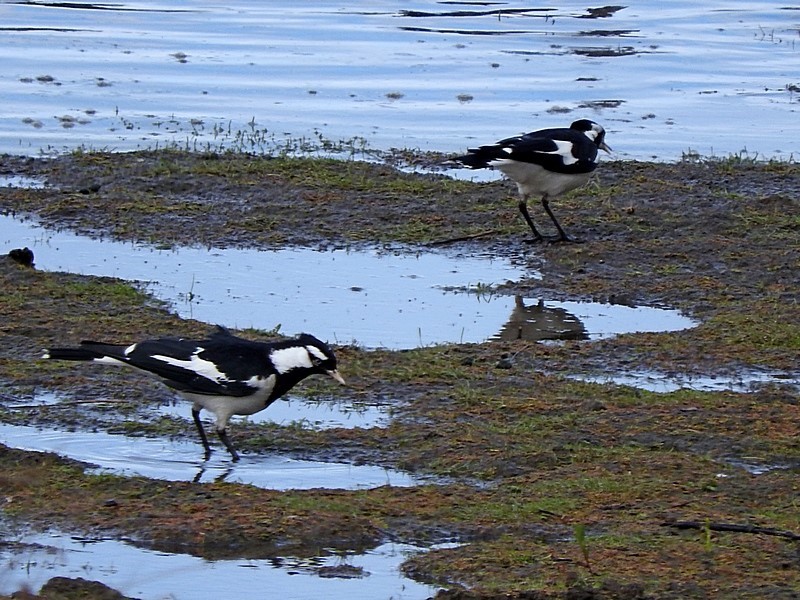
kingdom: Animalia
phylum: Chordata
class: Aves
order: Passeriformes
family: Monarchidae
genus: Grallina
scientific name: Grallina cyanoleuca
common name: Magpie-lark
